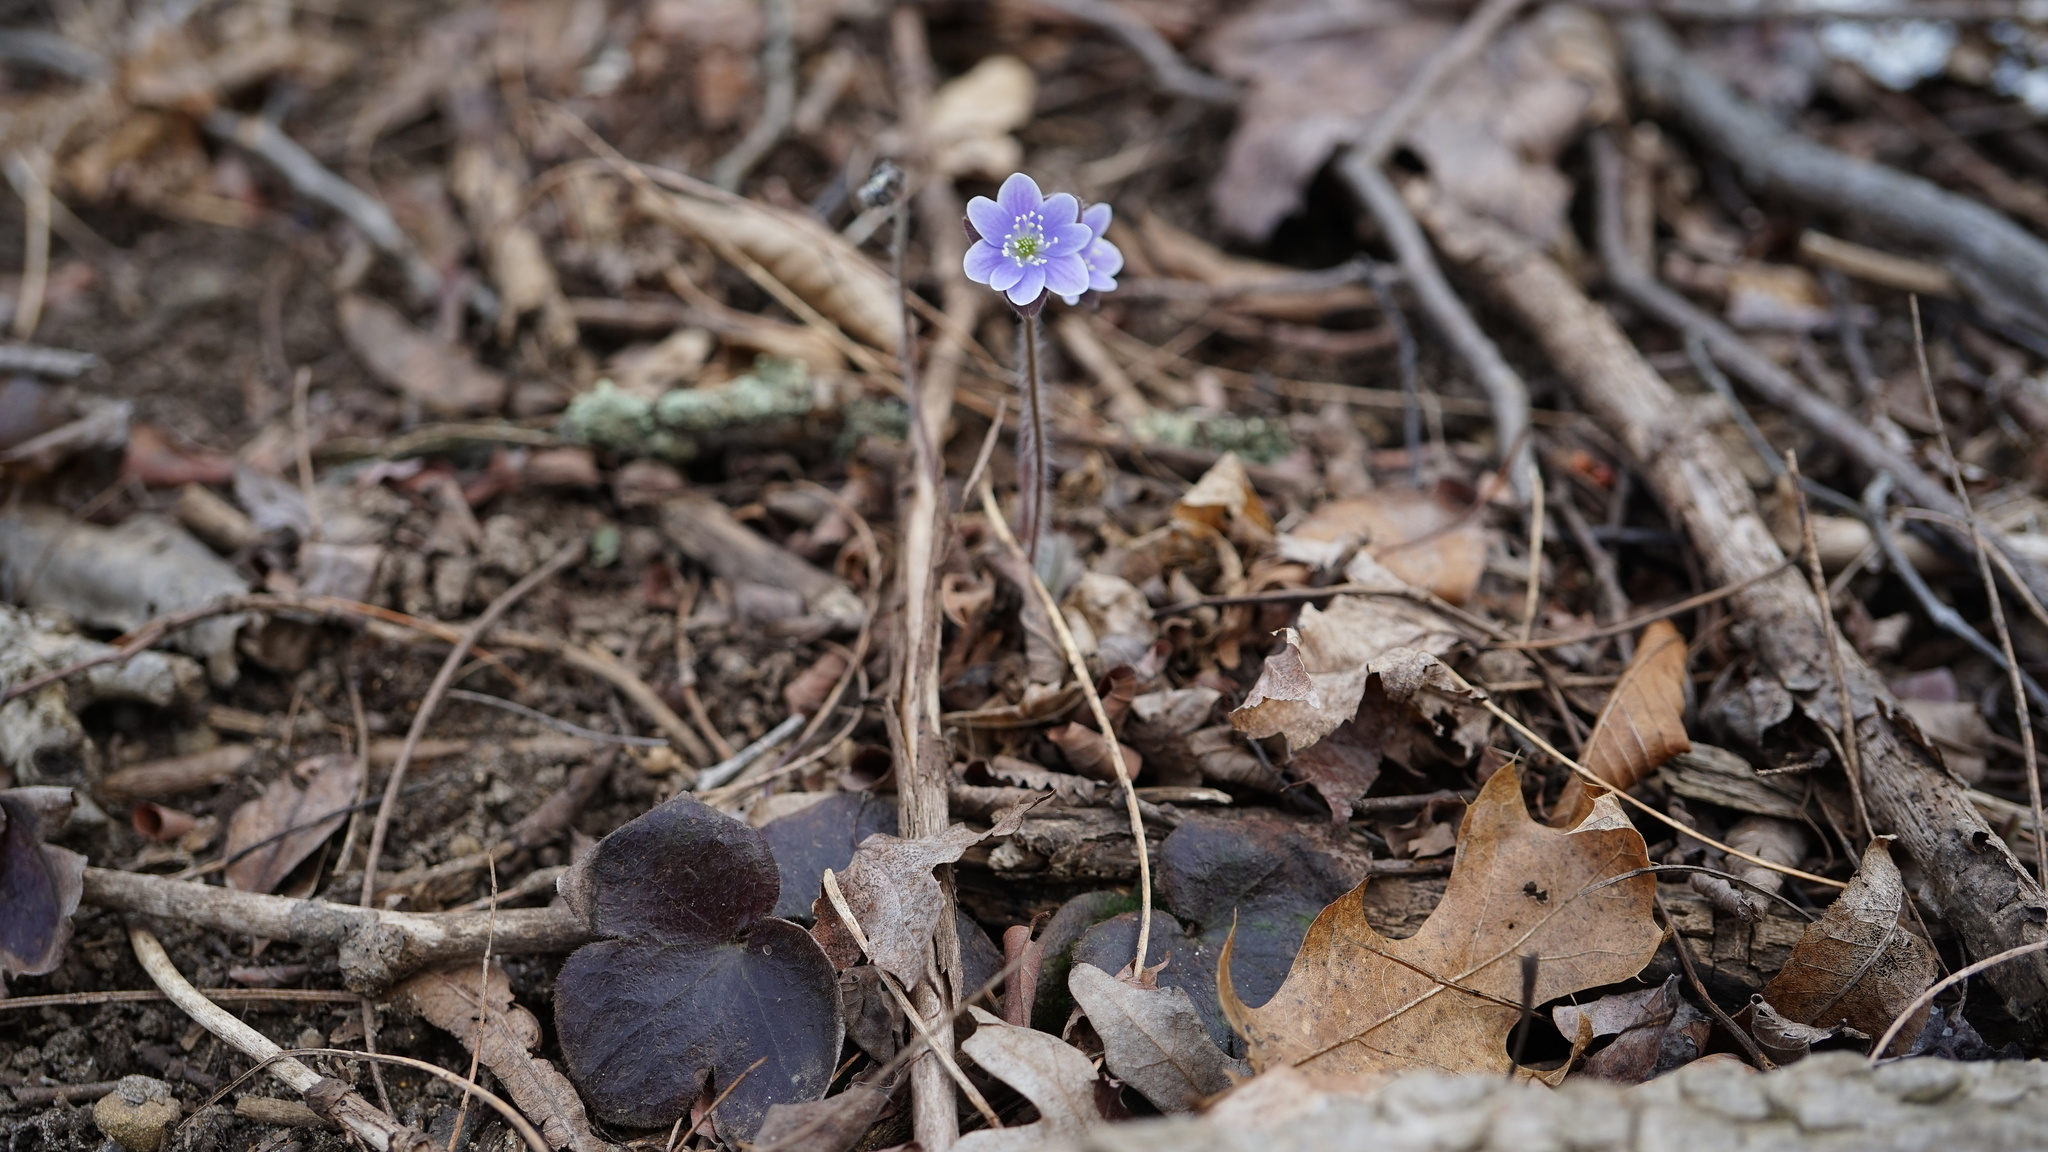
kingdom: Plantae
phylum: Tracheophyta
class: Magnoliopsida
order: Ranunculales
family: Ranunculaceae
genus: Hepatica
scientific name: Hepatica americana
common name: American hepatica
